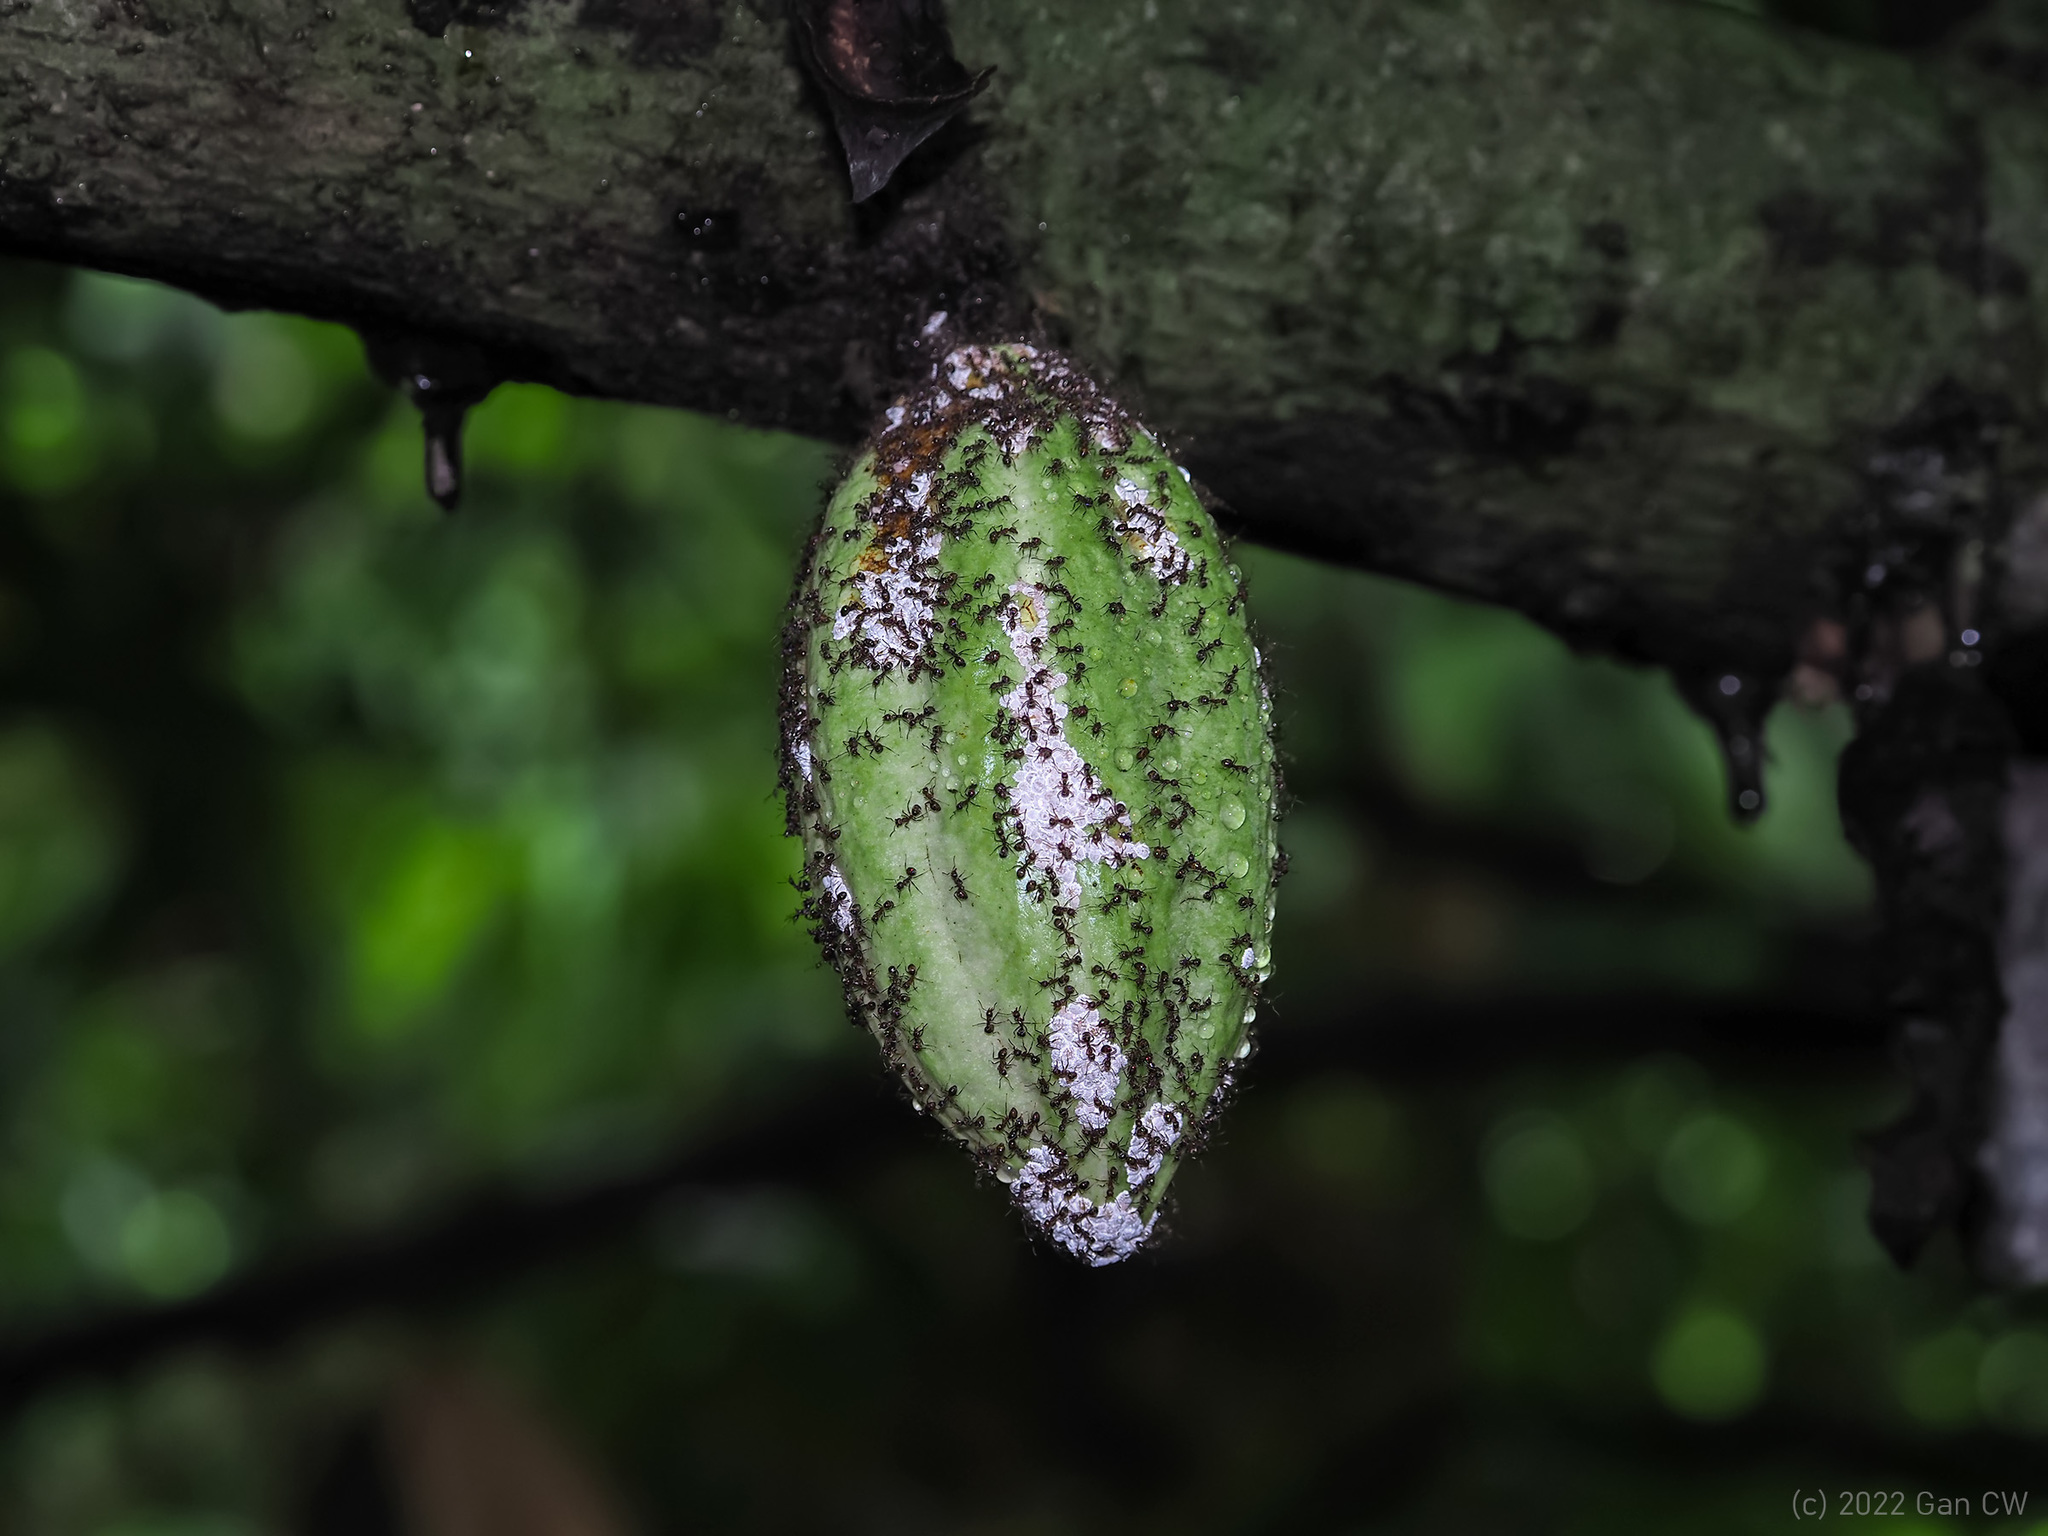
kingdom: Plantae
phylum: Tracheophyta
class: Magnoliopsida
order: Malvales
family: Malvaceae
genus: Theobroma
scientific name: Theobroma cacao
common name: Cocoa
